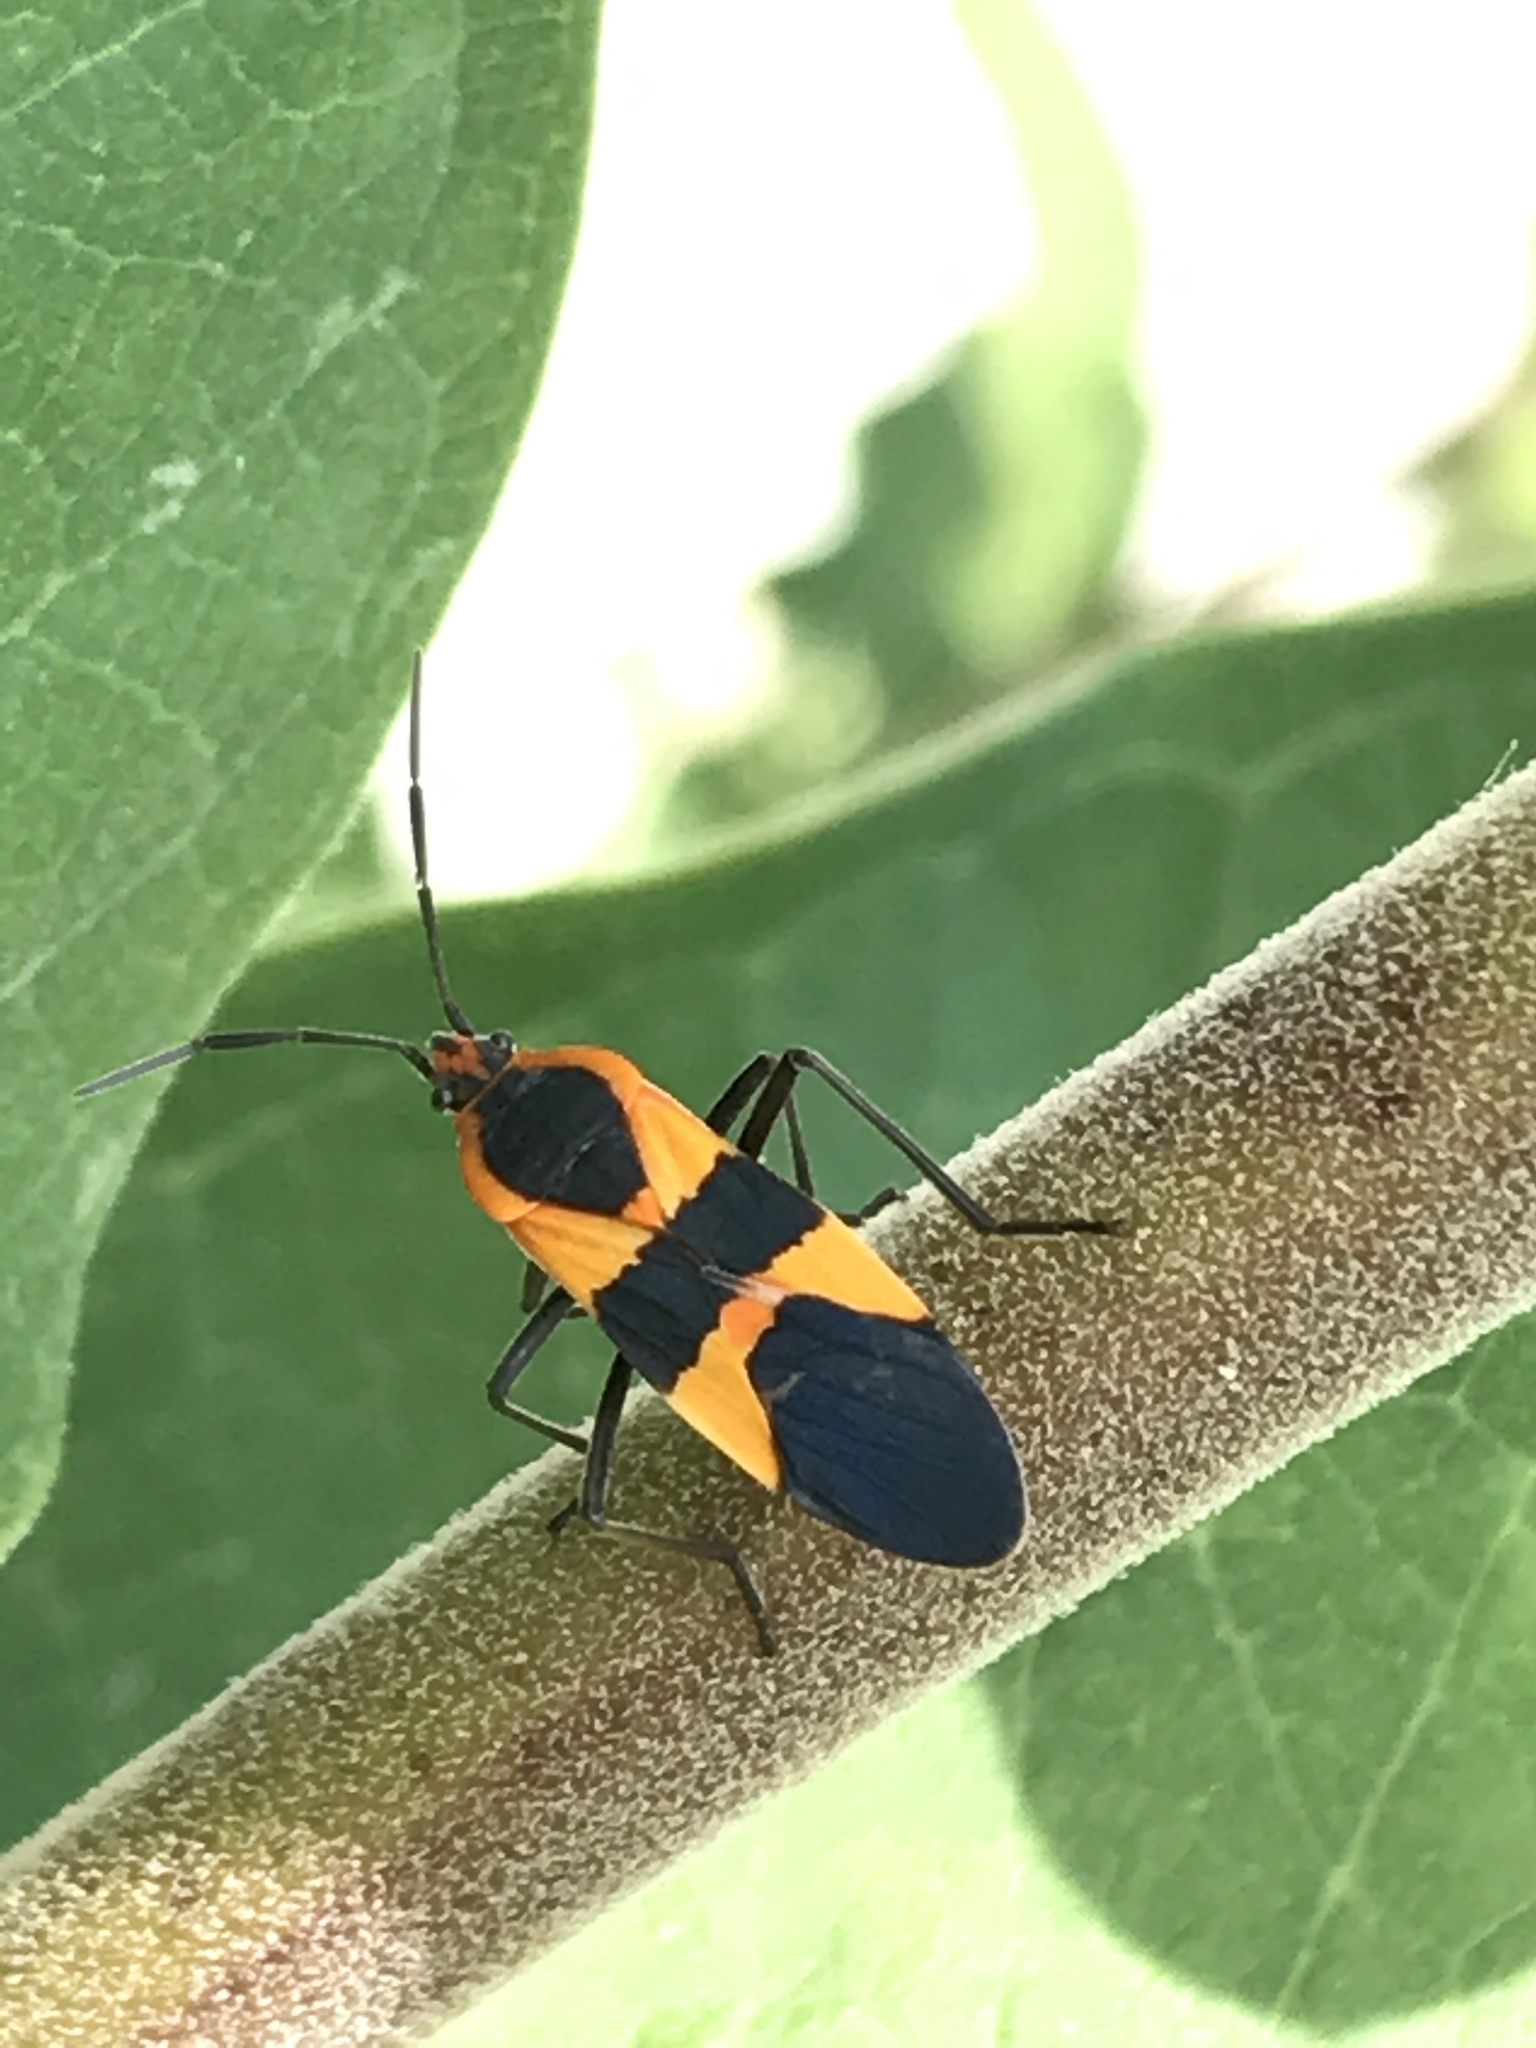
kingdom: Animalia
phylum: Arthropoda
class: Insecta
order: Hemiptera
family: Lygaeidae
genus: Oncopeltus
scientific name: Oncopeltus fasciatus
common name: Large milkweed bug
